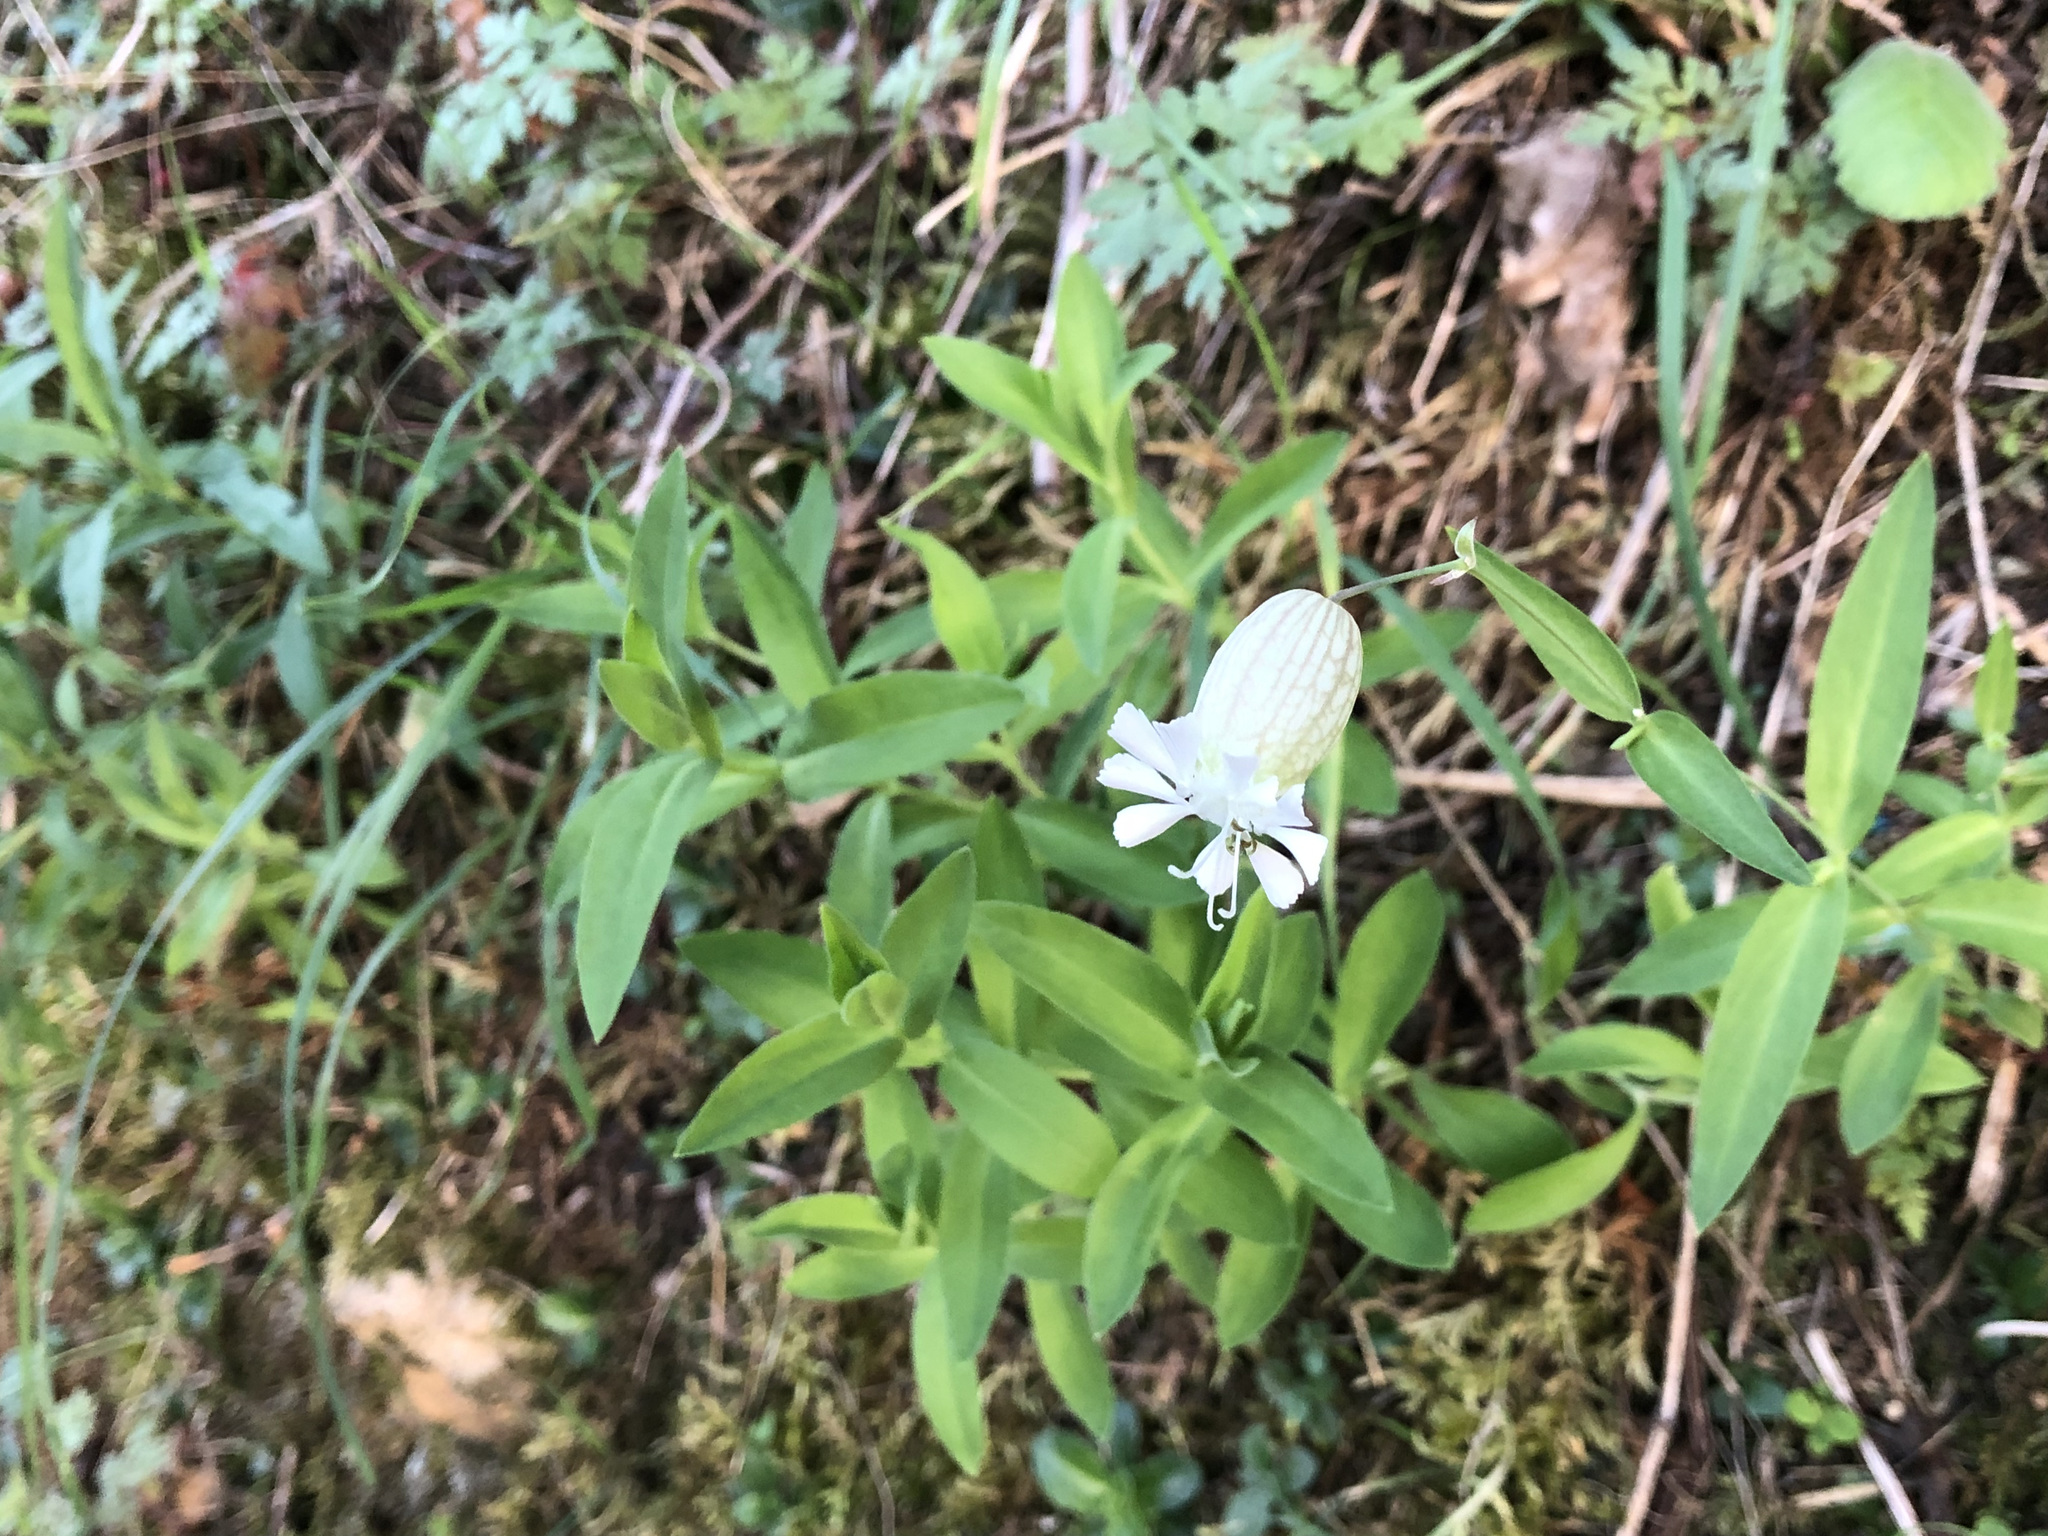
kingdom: Plantae
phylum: Tracheophyta
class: Magnoliopsida
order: Caryophyllales
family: Caryophyllaceae
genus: Silene
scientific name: Silene vulgaris
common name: Bladder campion
